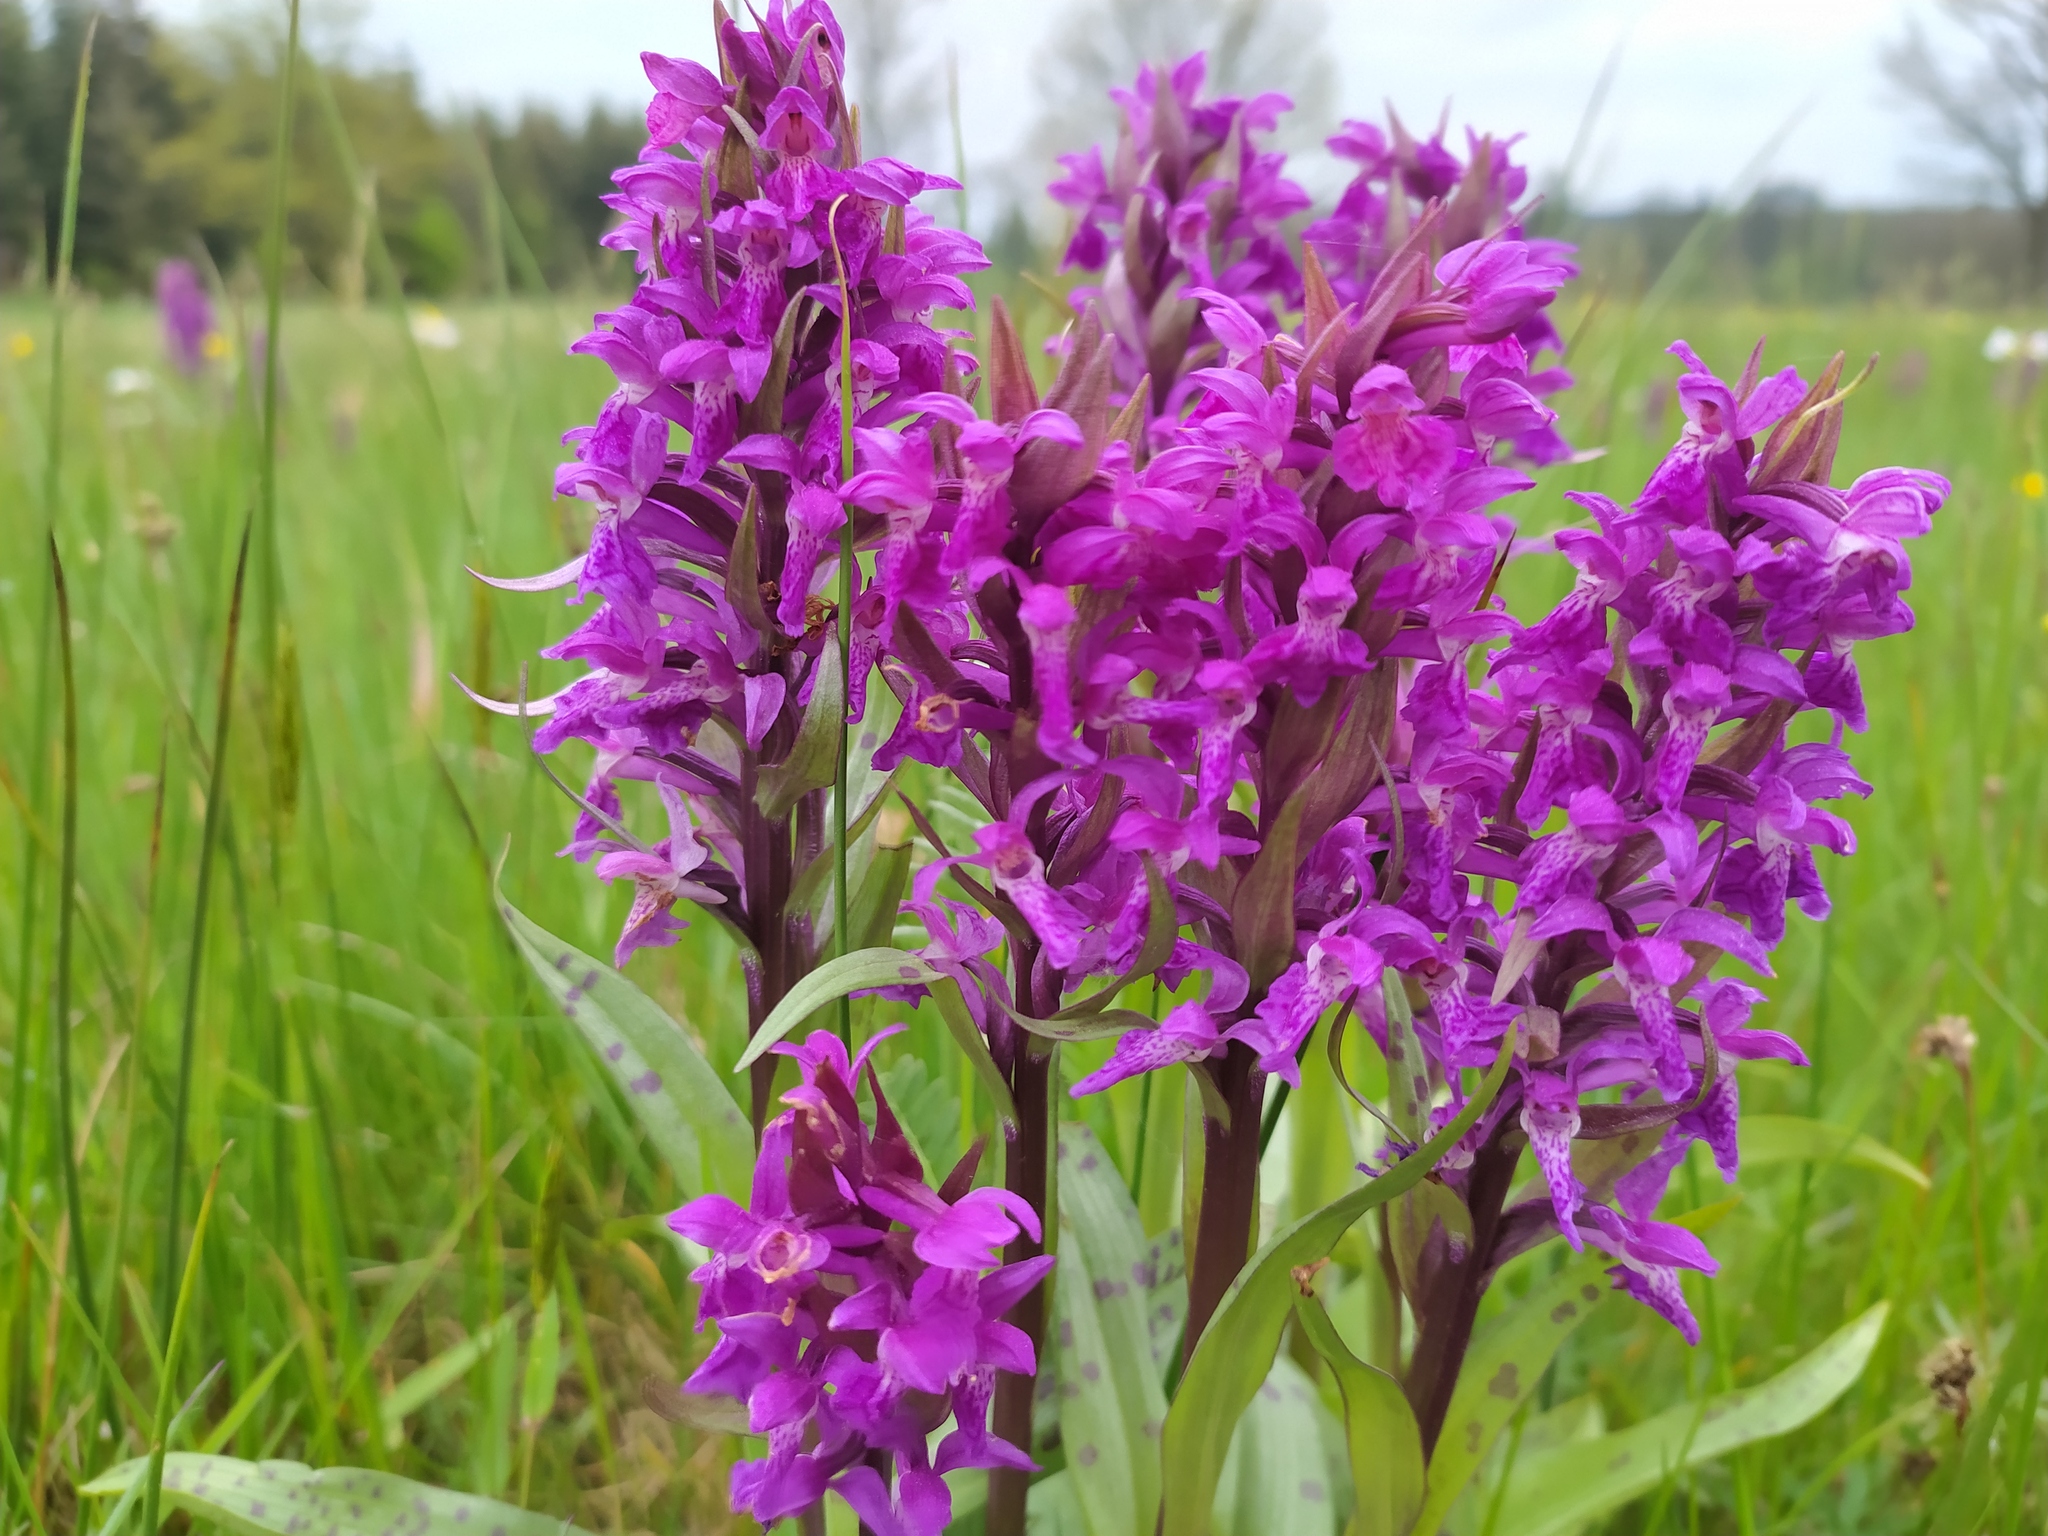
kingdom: Plantae
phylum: Tracheophyta
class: Liliopsida
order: Asparagales
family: Orchidaceae
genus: Dactylorhiza
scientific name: Dactylorhiza majalis
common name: Marsh orchid
